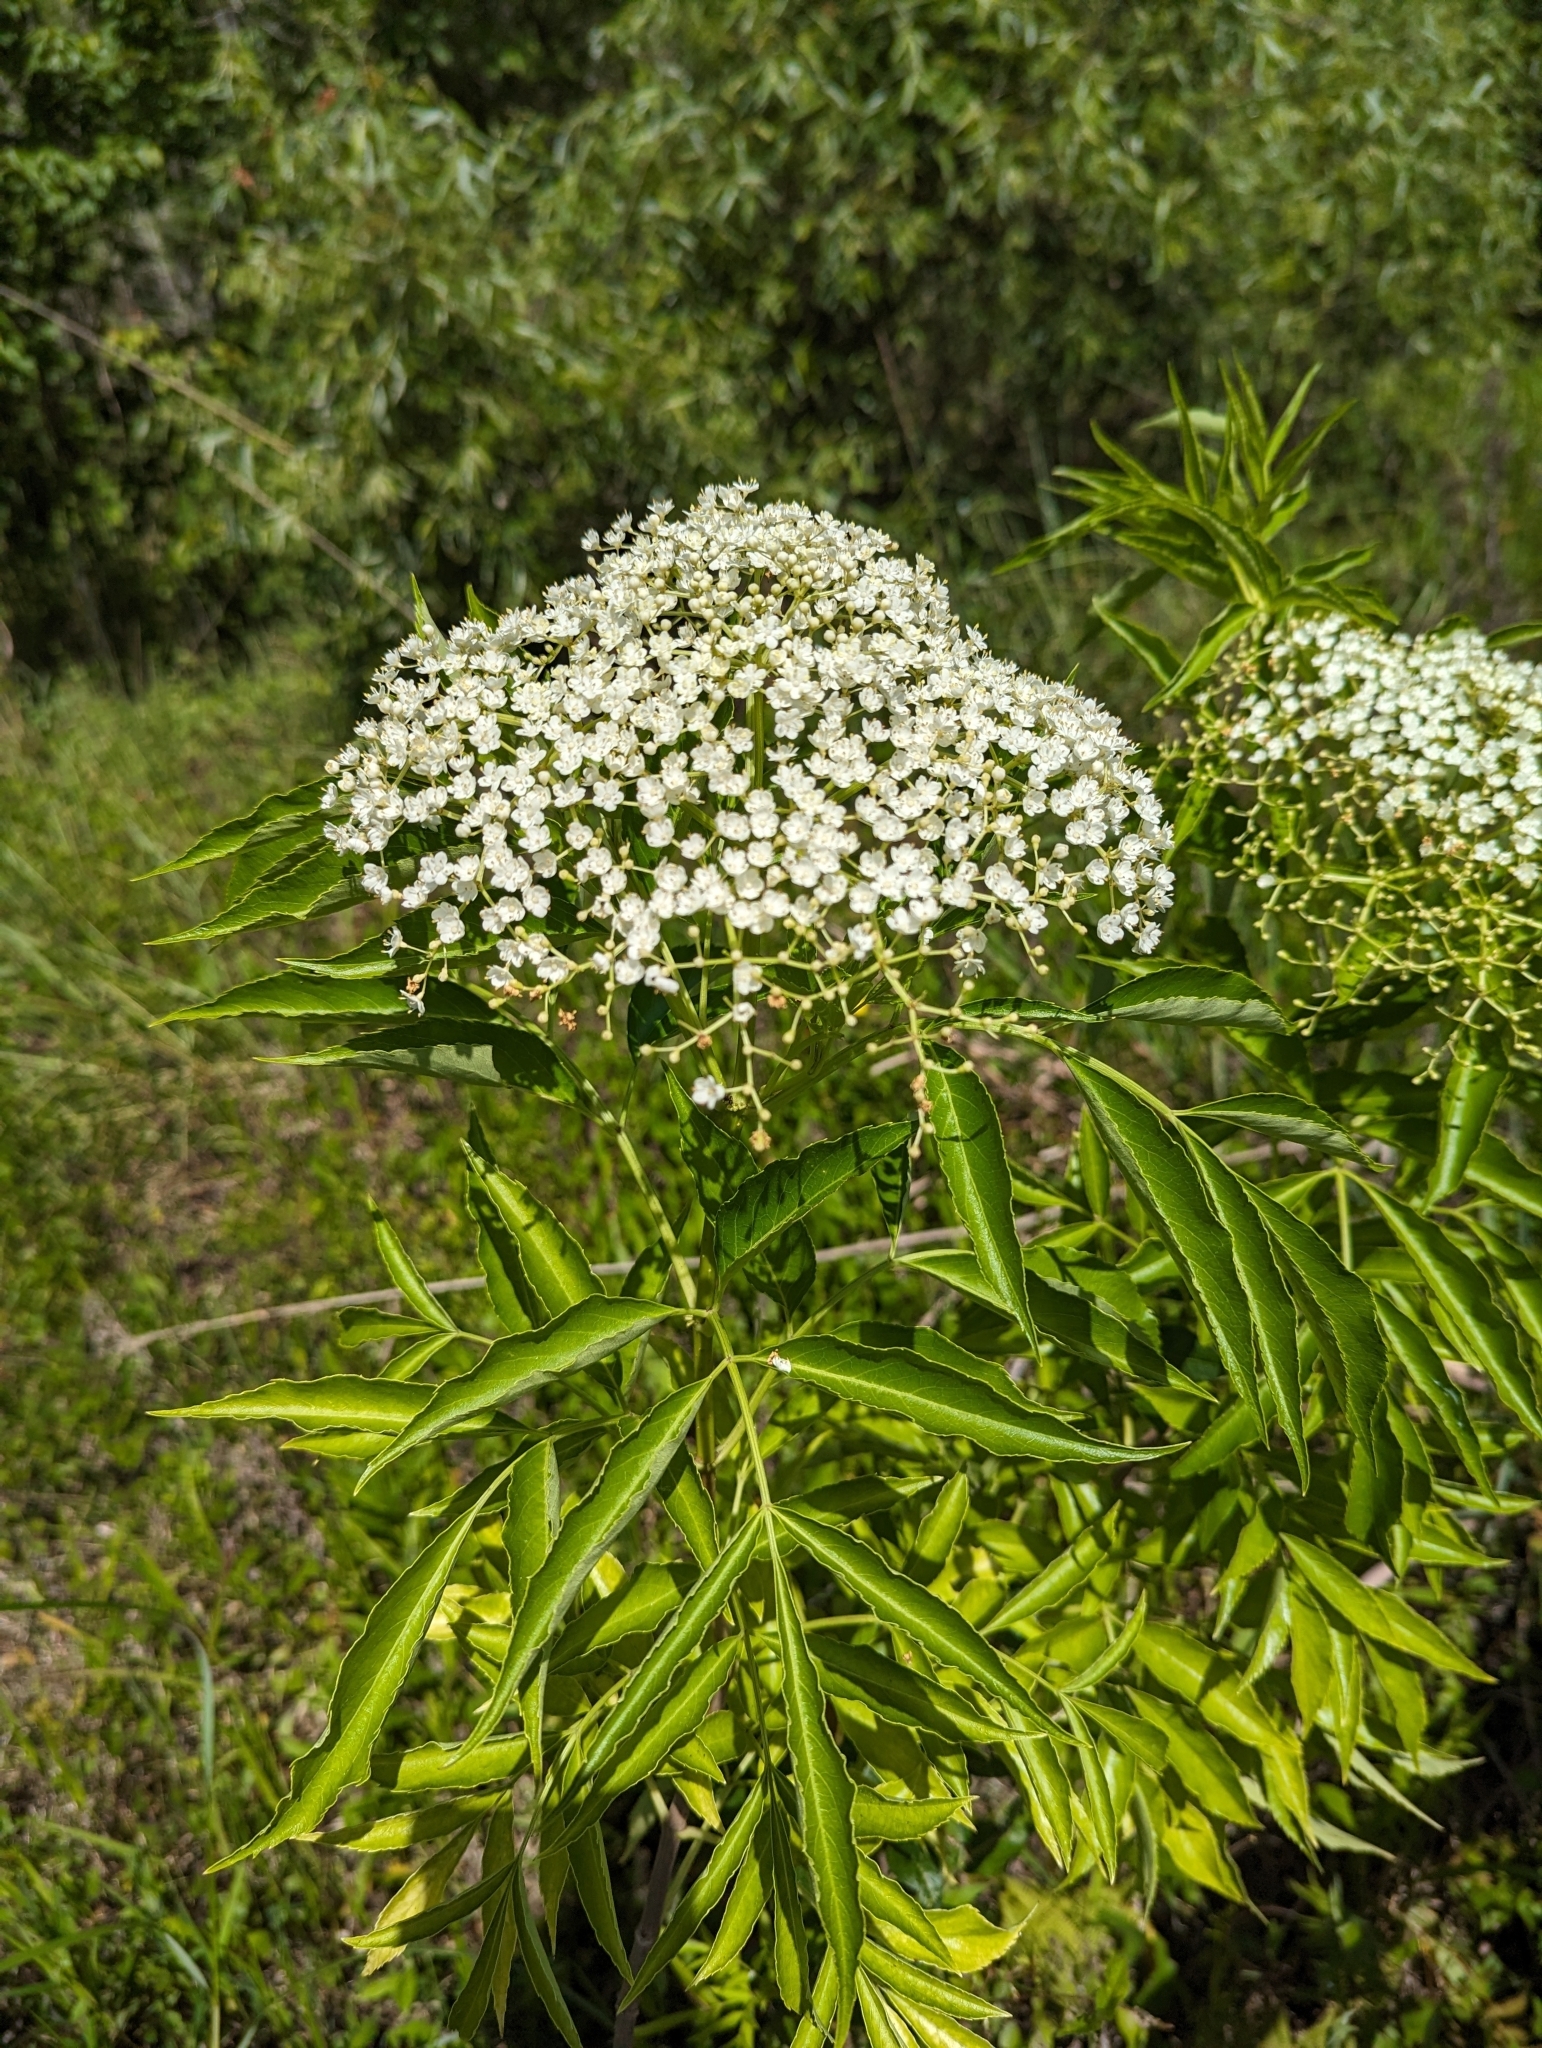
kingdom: Plantae
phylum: Tracheophyta
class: Magnoliopsida
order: Dipsacales
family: Viburnaceae
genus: Sambucus
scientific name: Sambucus canadensis
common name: American elder
